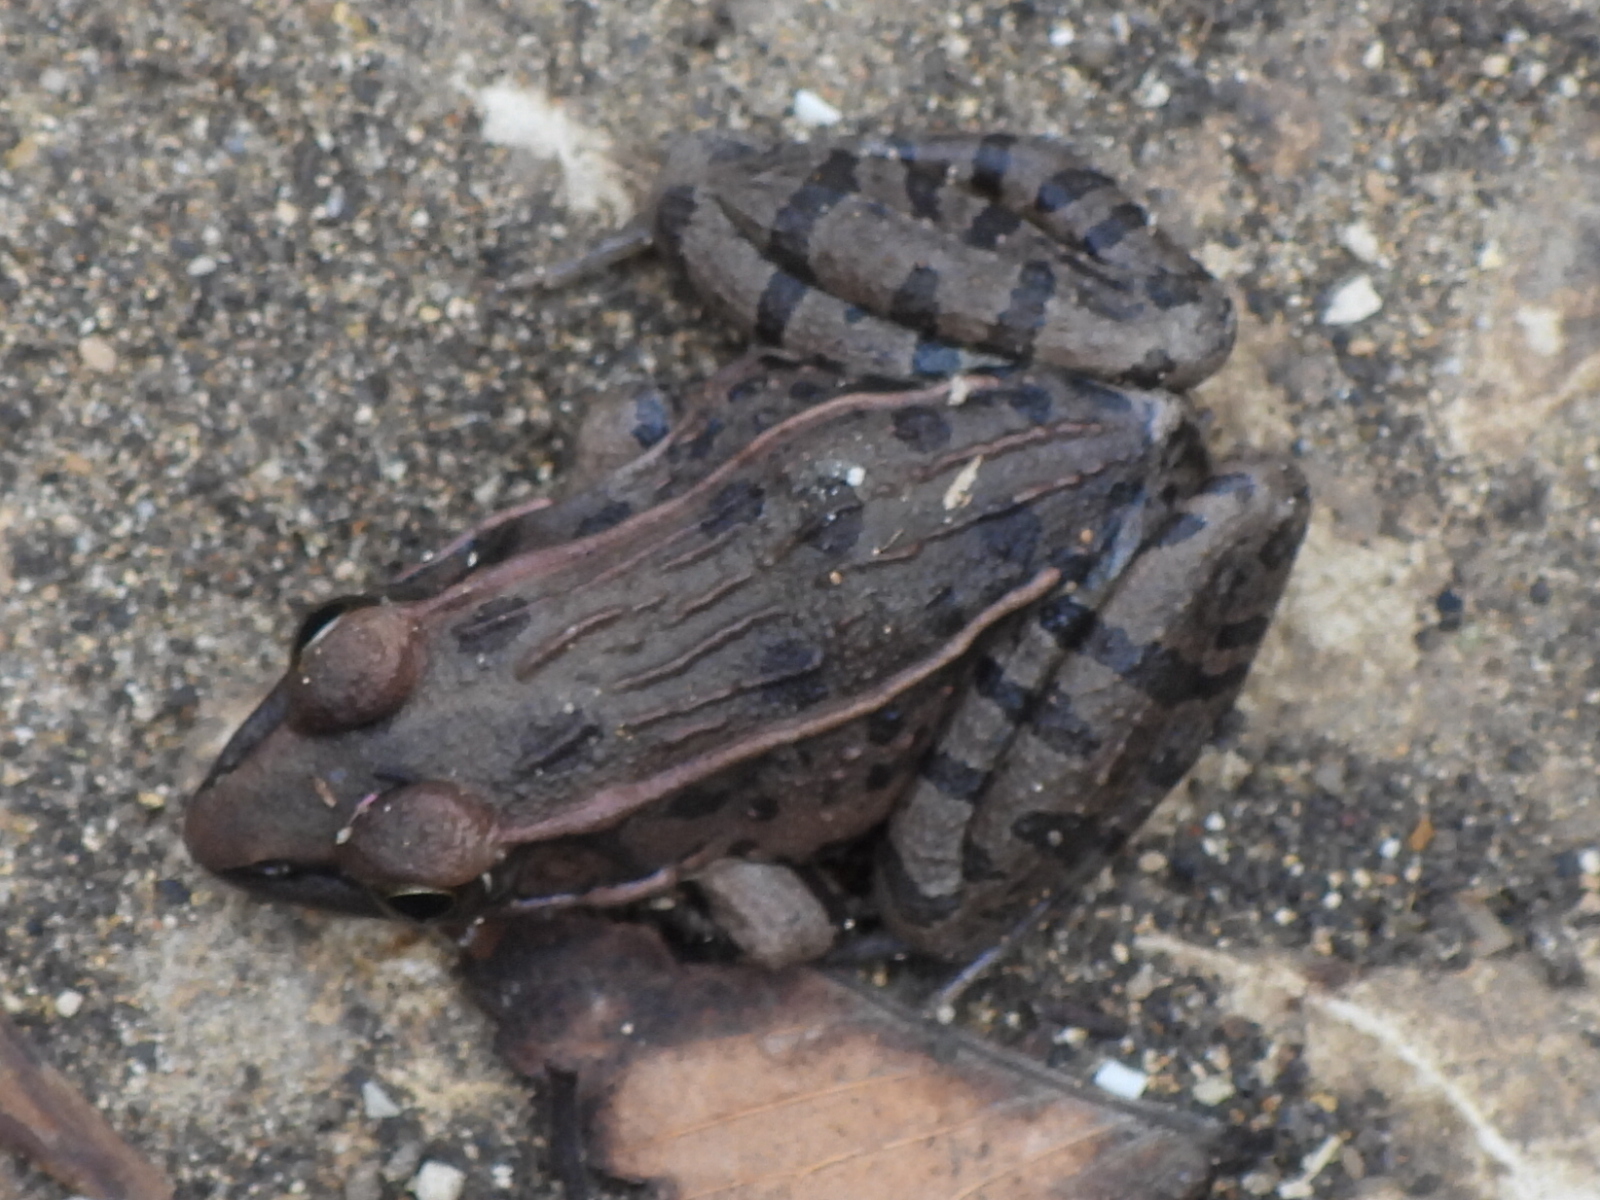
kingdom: Animalia
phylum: Chordata
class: Amphibia
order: Anura
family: Ranidae
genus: Lithobates
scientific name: Lithobates sphenocephalus
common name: Southern leopard frog
